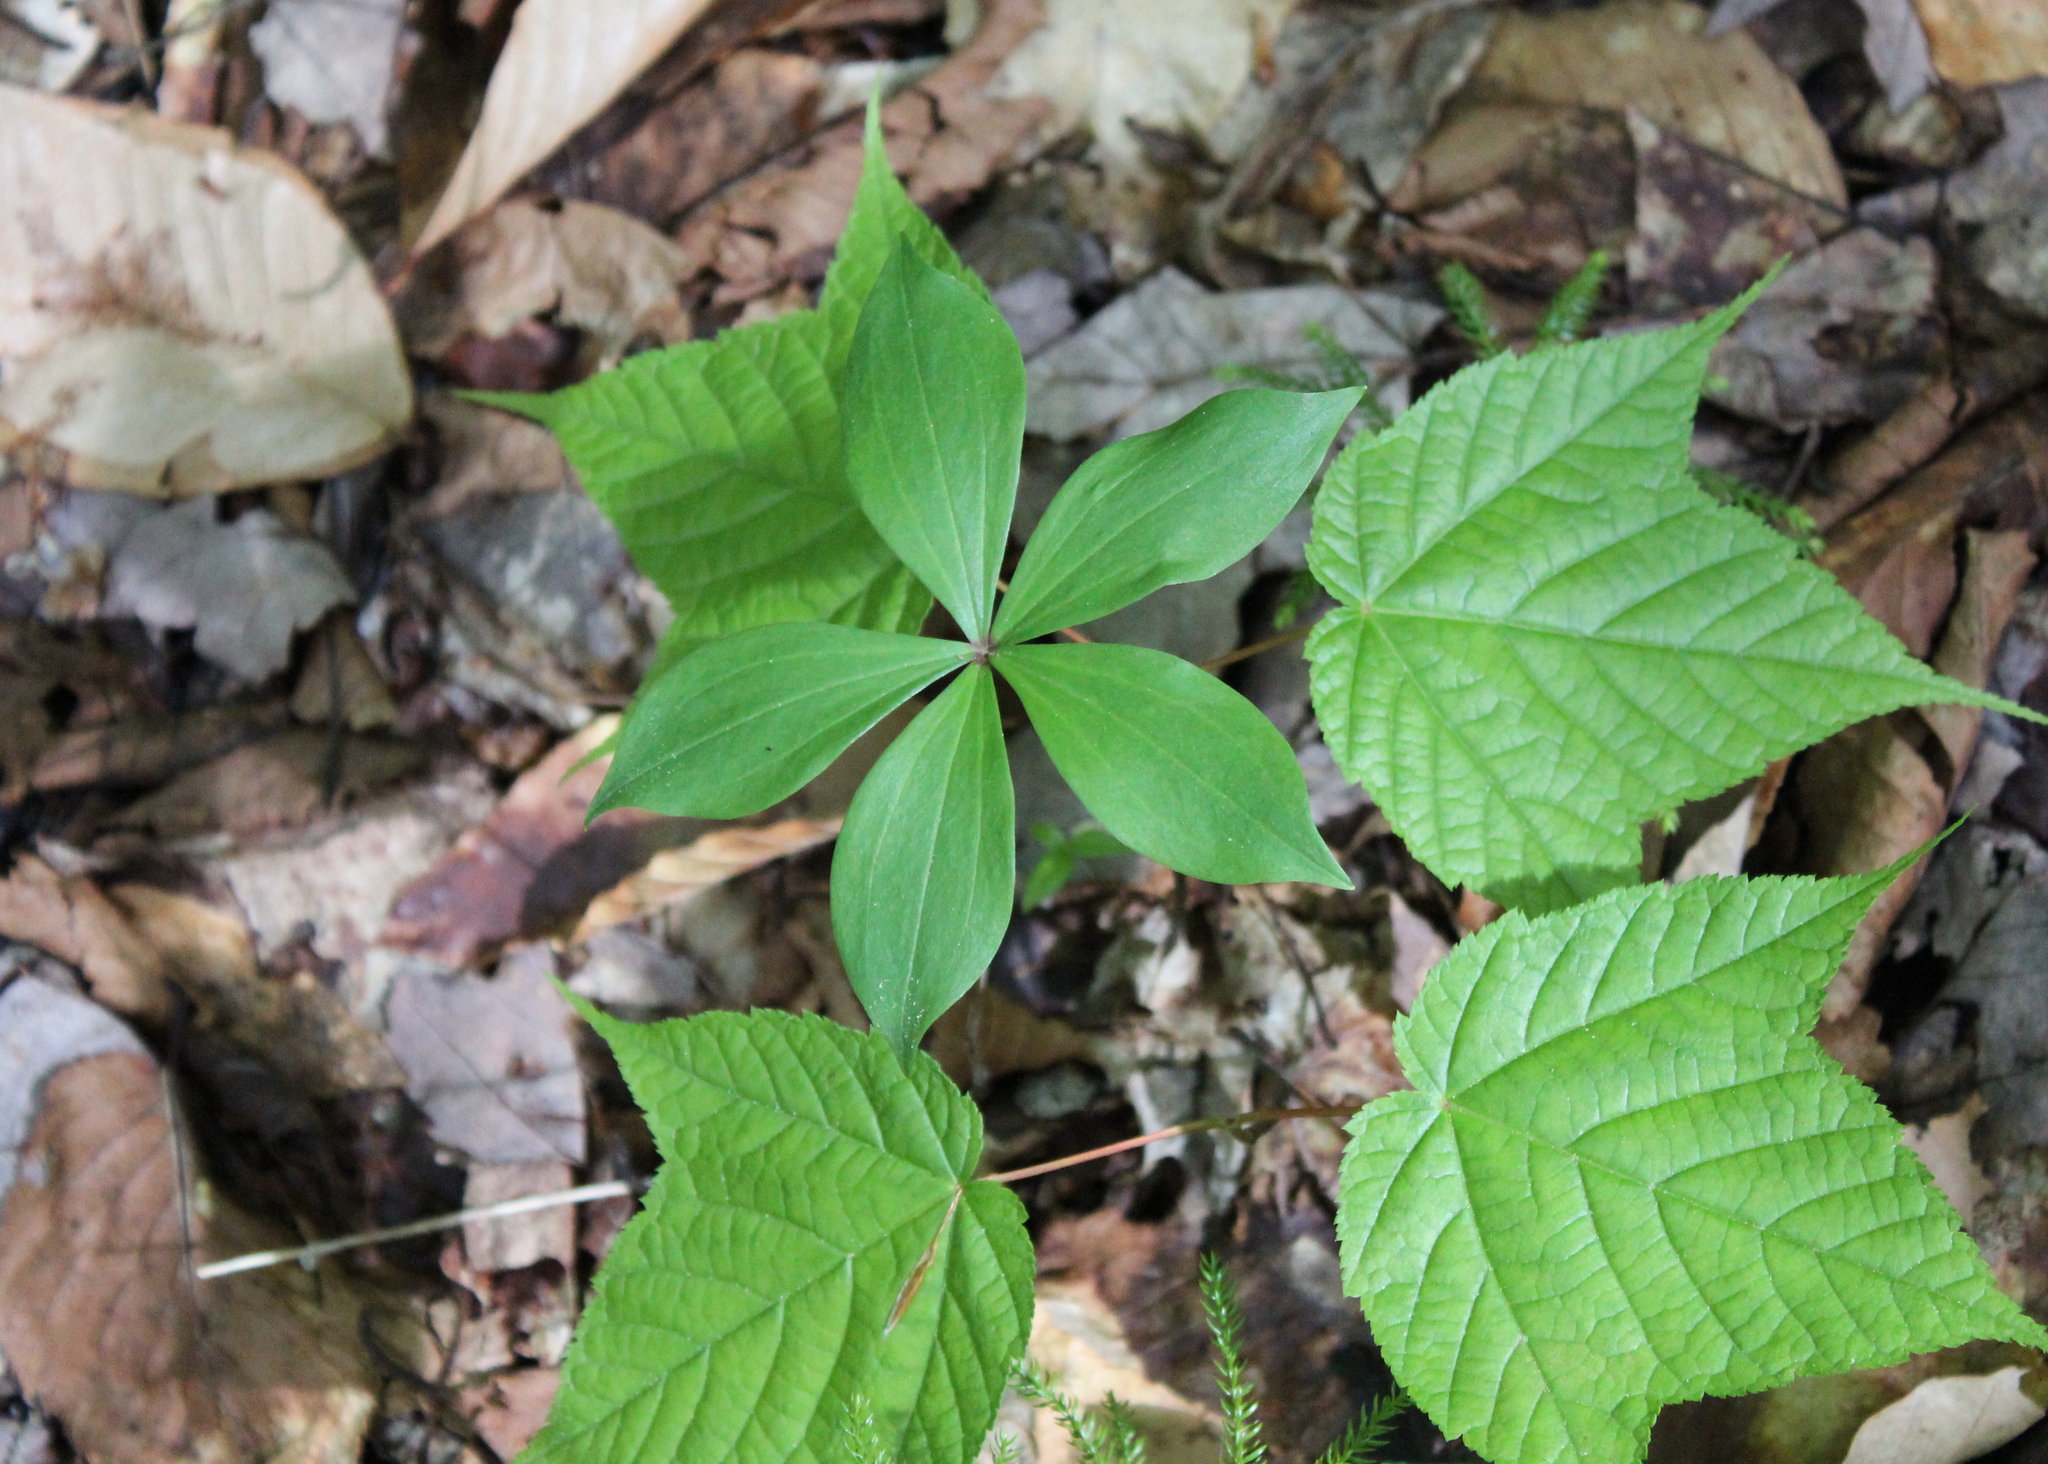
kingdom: Plantae
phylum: Tracheophyta
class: Liliopsida
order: Liliales
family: Liliaceae
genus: Medeola
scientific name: Medeola virginiana
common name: Indian cucumber-root
